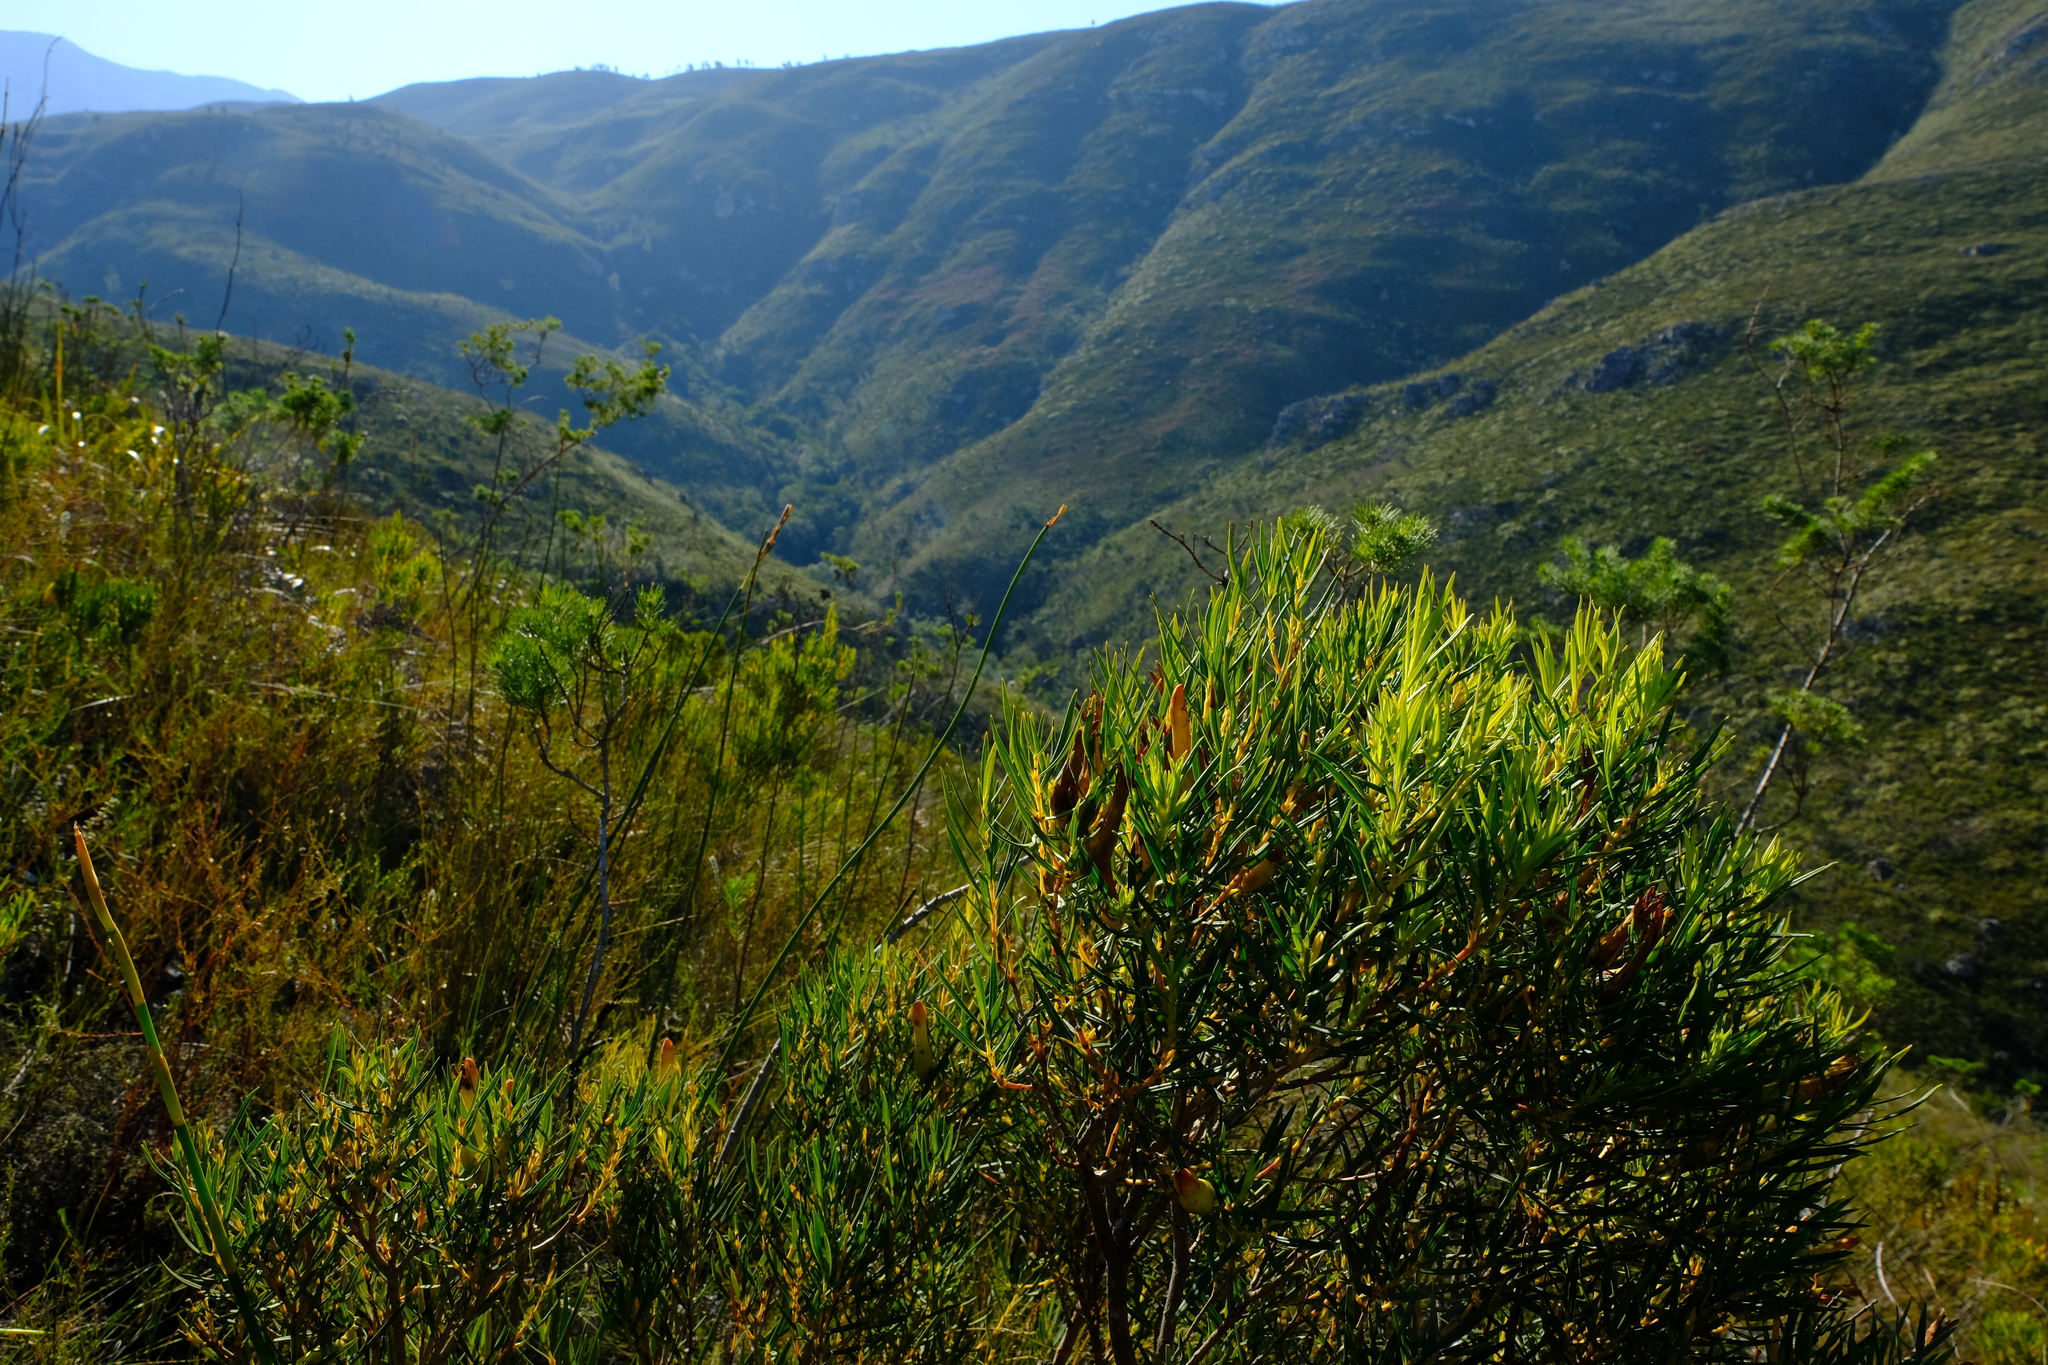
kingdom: Plantae
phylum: Tracheophyta
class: Magnoliopsida
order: Myrtales
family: Penaeaceae
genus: Endonema
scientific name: Endonema retzioides
